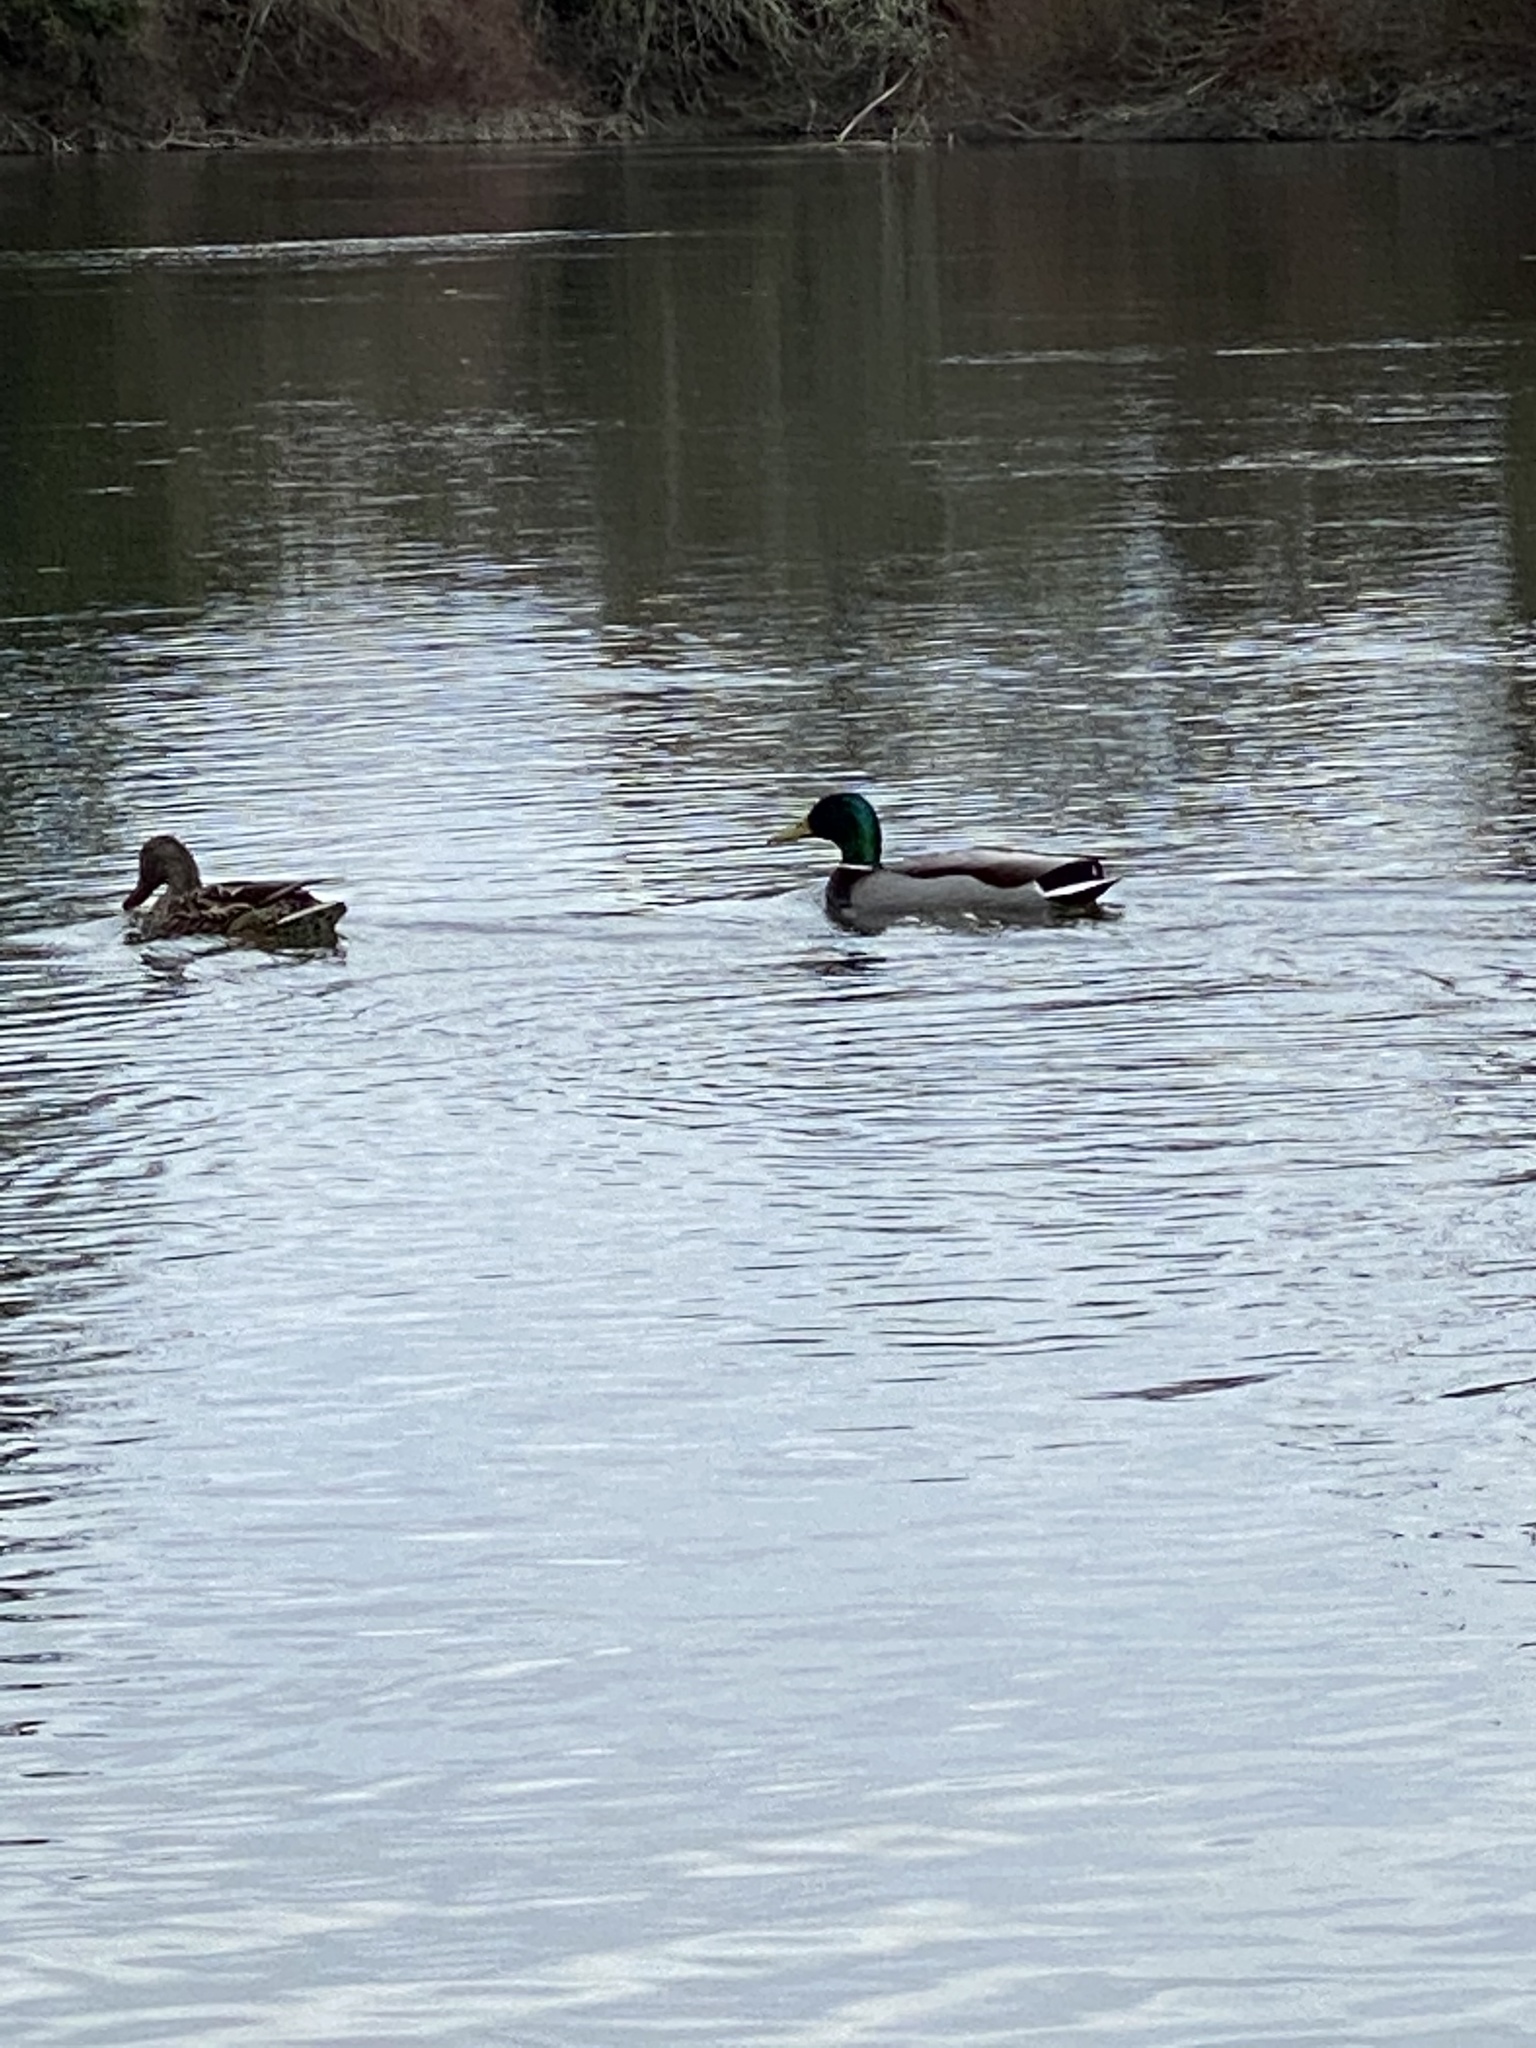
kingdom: Animalia
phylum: Chordata
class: Aves
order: Anseriformes
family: Anatidae
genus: Anas
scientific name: Anas platyrhynchos
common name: Mallard
